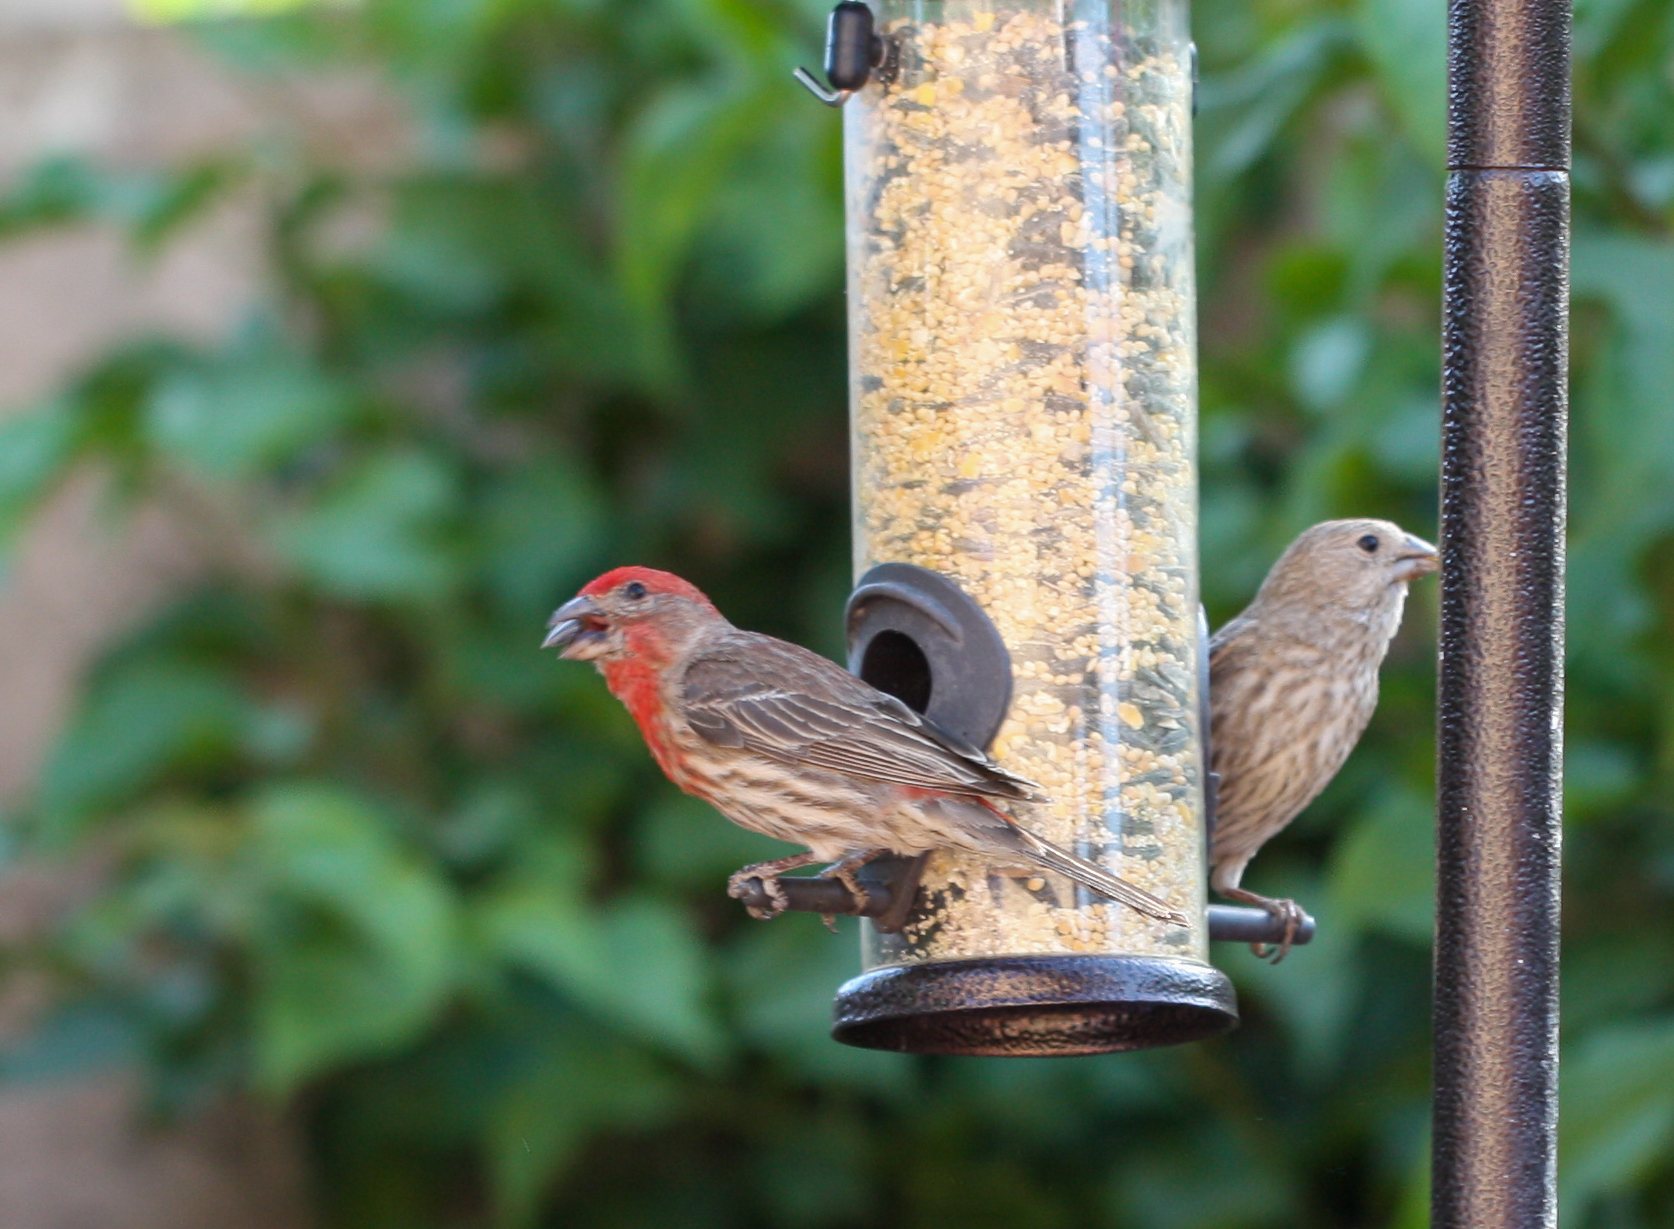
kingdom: Animalia
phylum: Chordata
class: Aves
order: Passeriformes
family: Fringillidae
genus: Haemorhous
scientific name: Haemorhous mexicanus
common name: House finch
